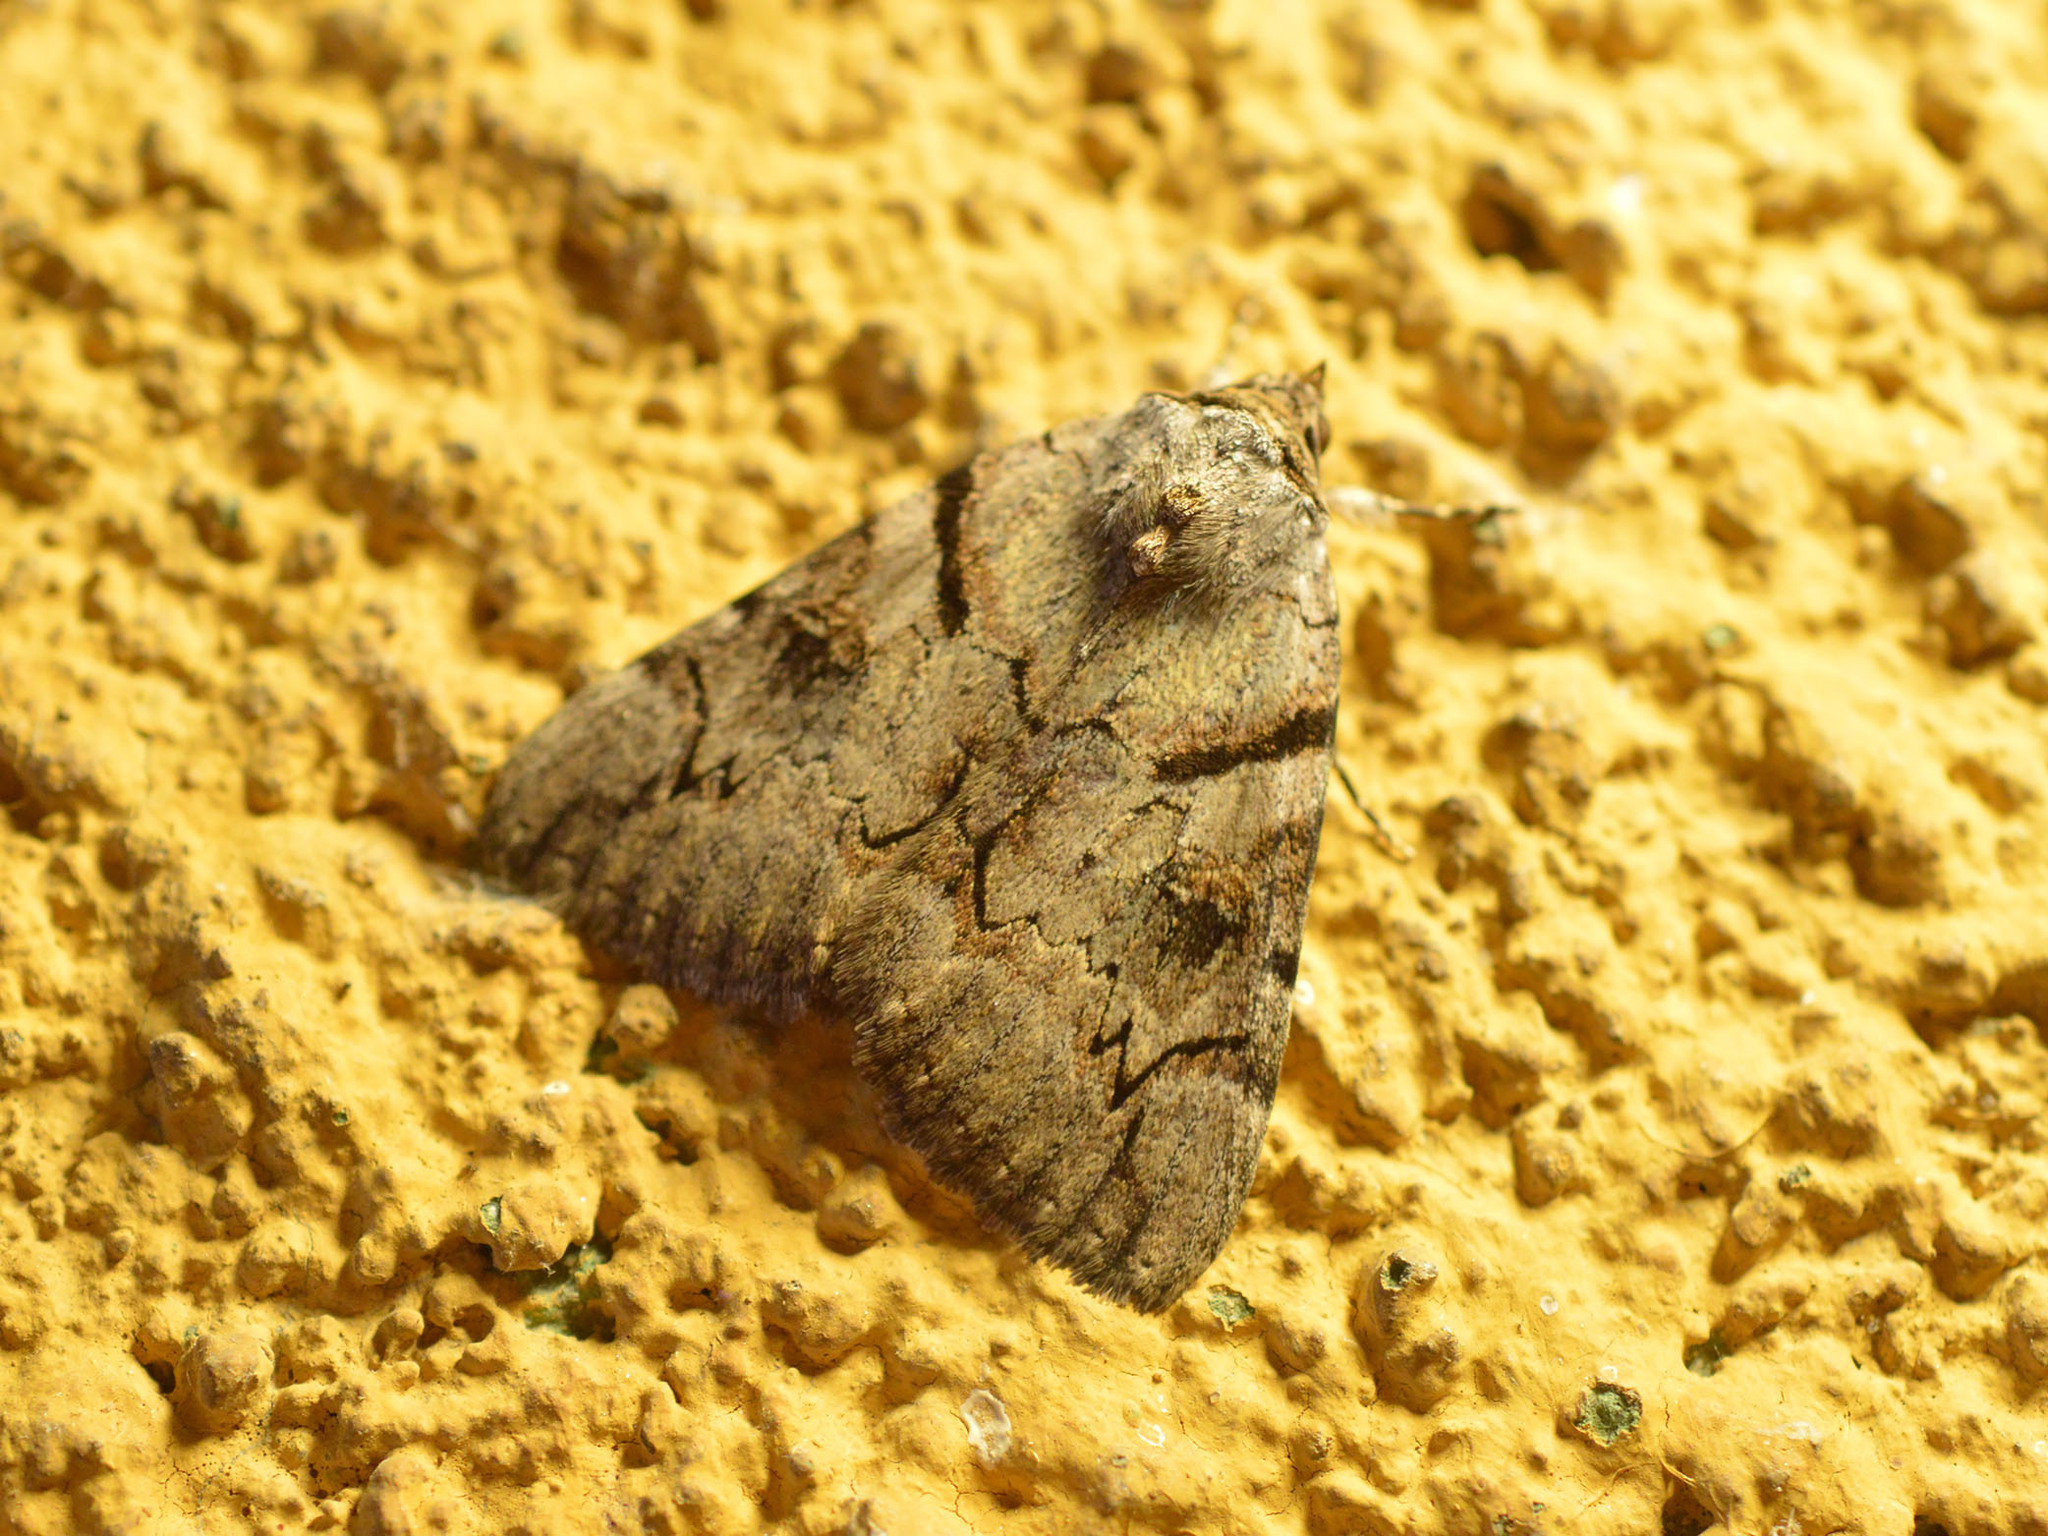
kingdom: Animalia
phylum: Arthropoda
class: Insecta
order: Lepidoptera
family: Erebidae
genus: Catocala
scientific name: Catocala hymenaea
